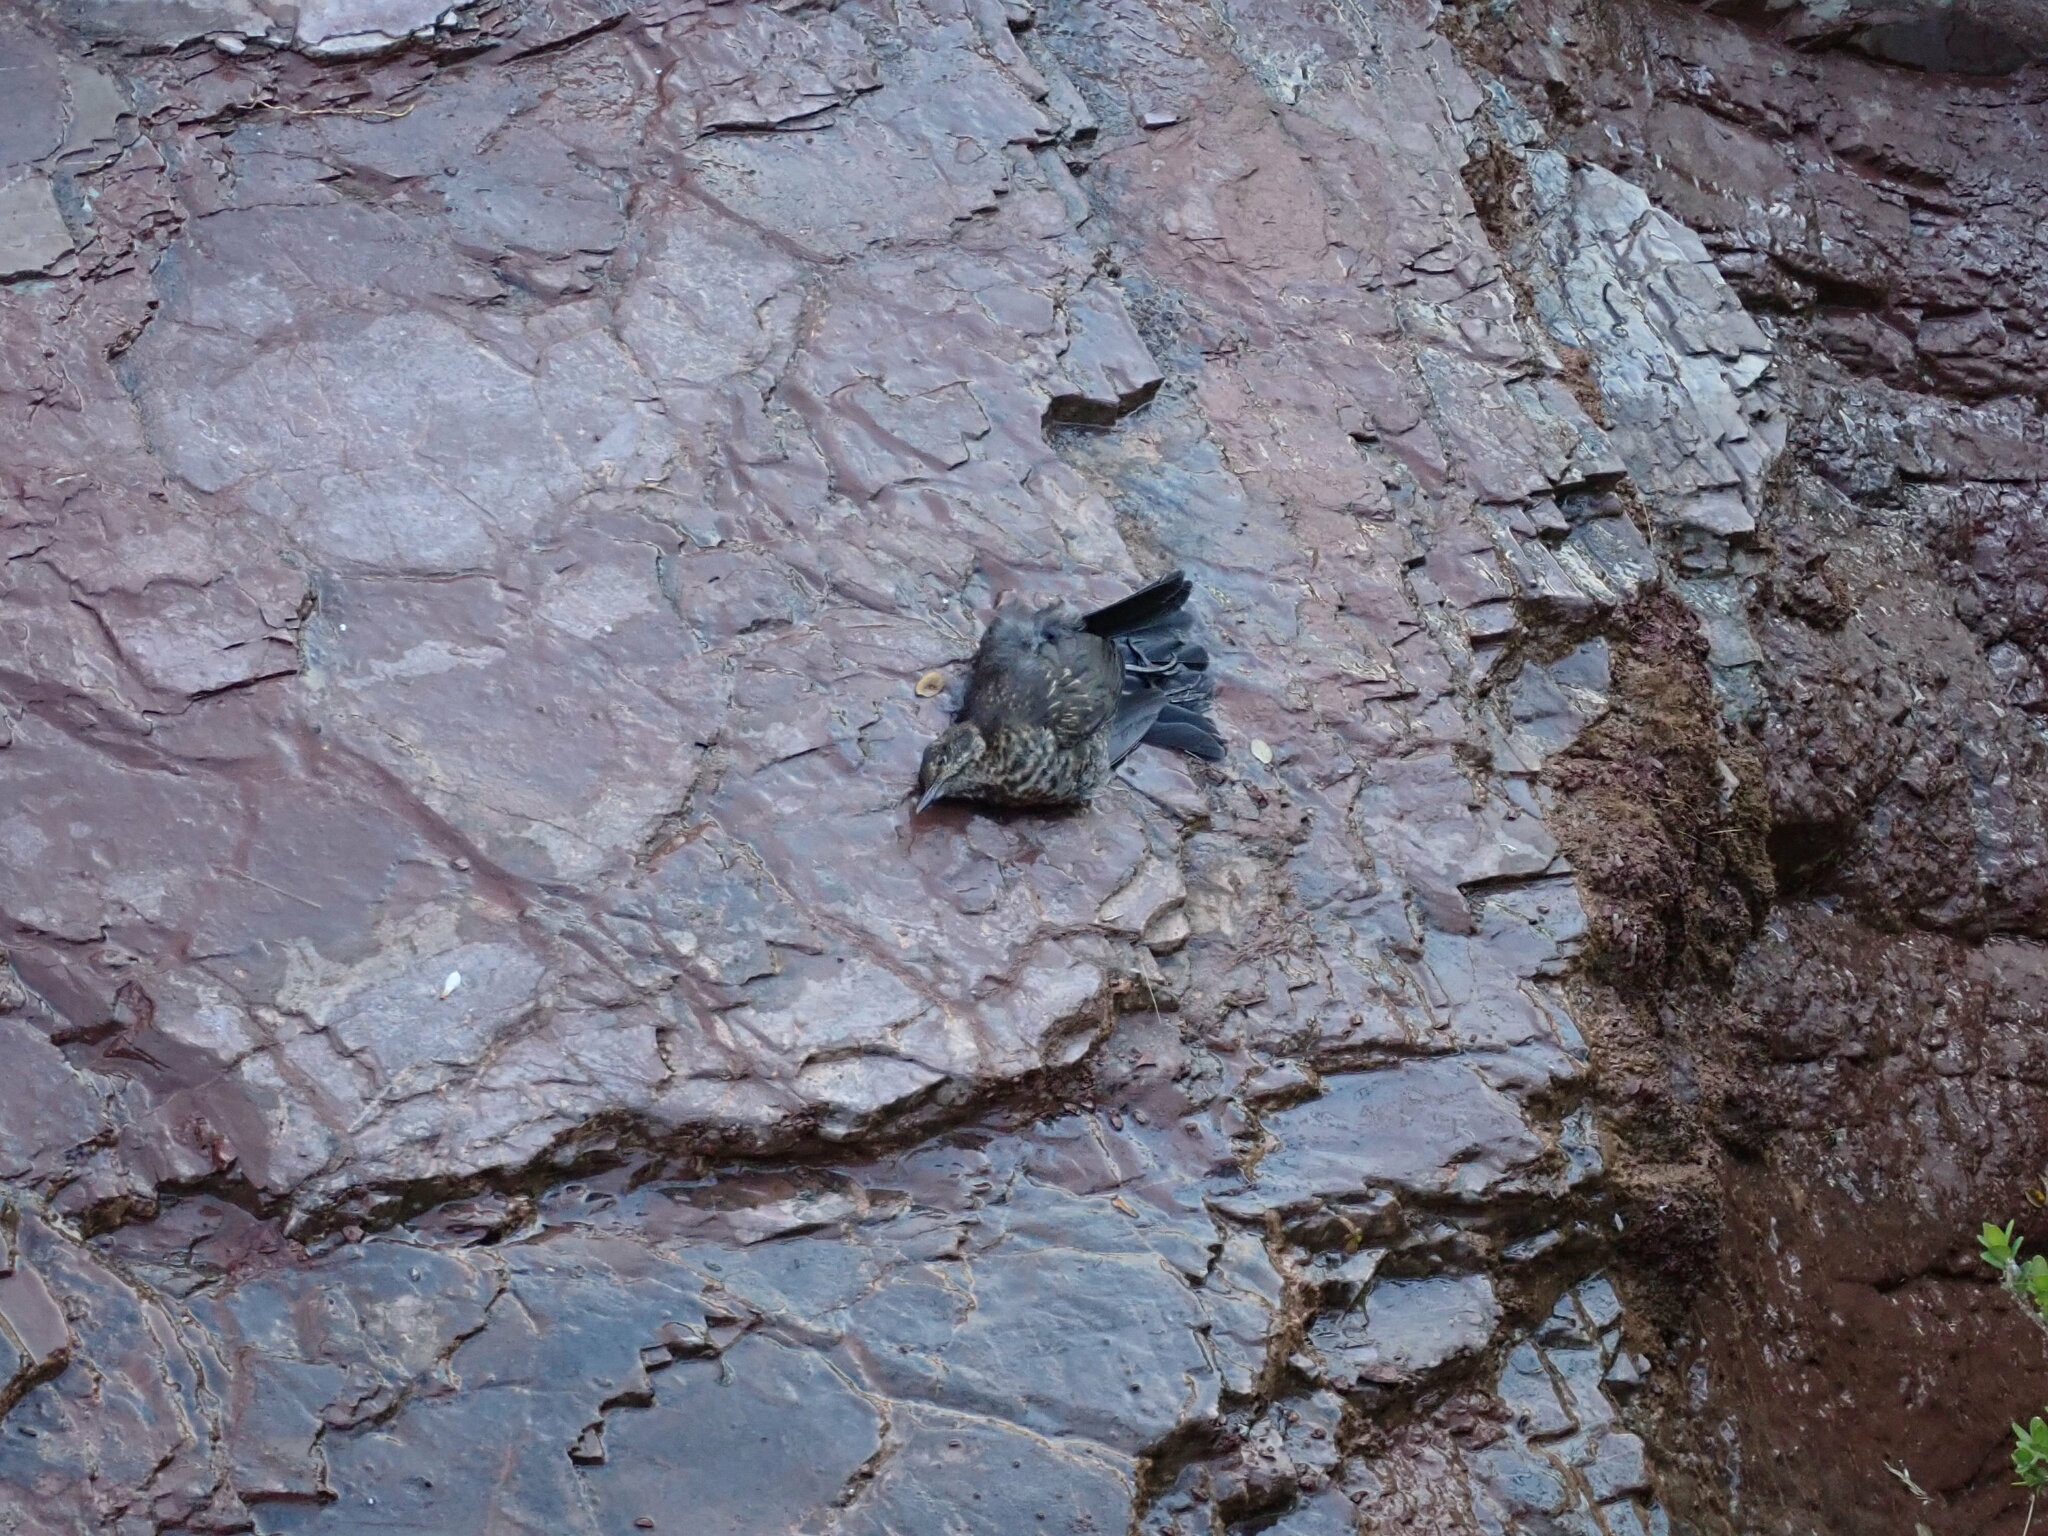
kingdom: Animalia
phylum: Chordata
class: Aves
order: Passeriformes
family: Turdidae
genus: Turdus
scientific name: Turdus merula
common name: Common blackbird
